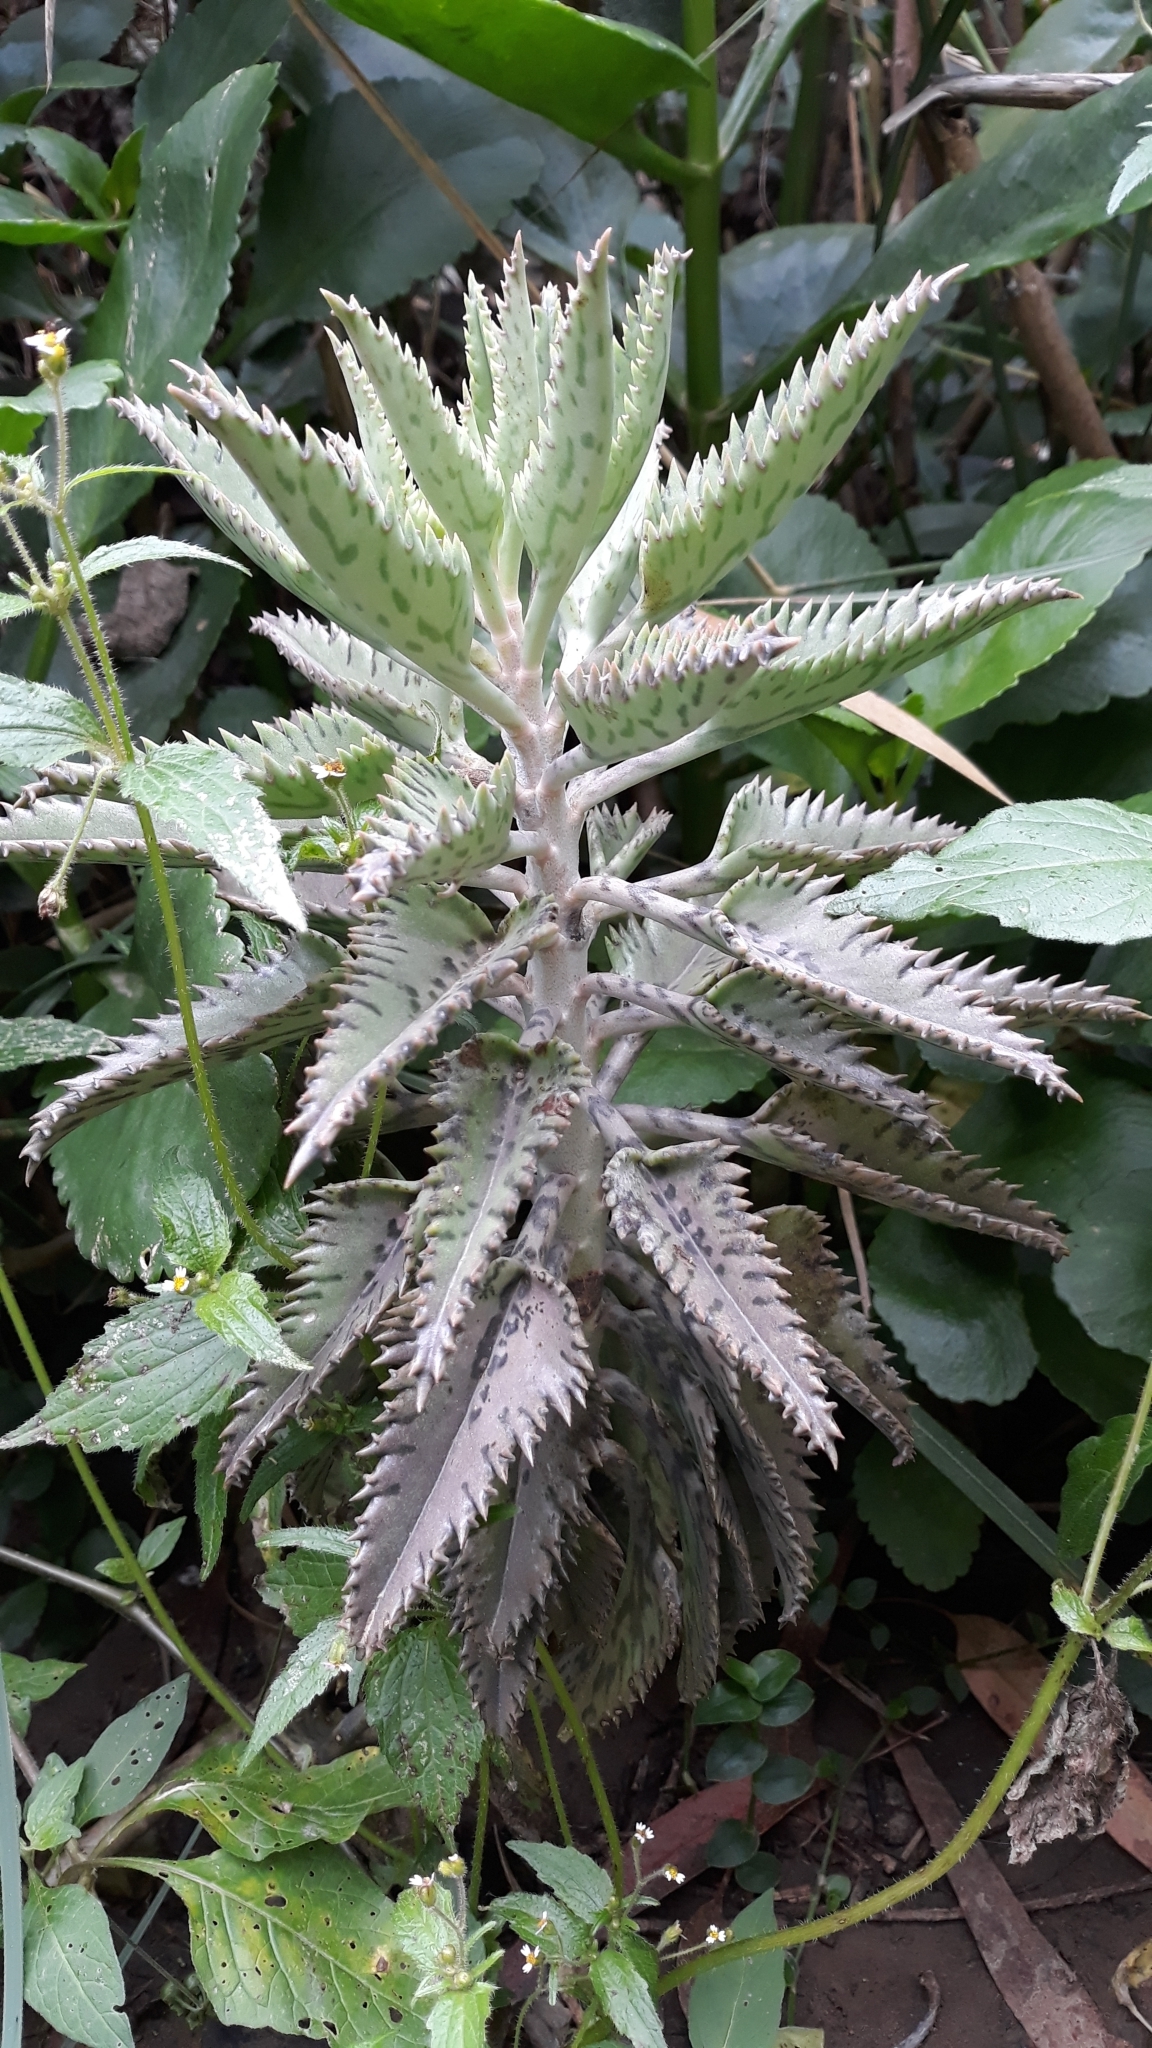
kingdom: Plantae
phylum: Tracheophyta
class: Magnoliopsida
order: Saxifragales
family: Crassulaceae
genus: Kalanchoe
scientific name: Kalanchoe houghtonii
